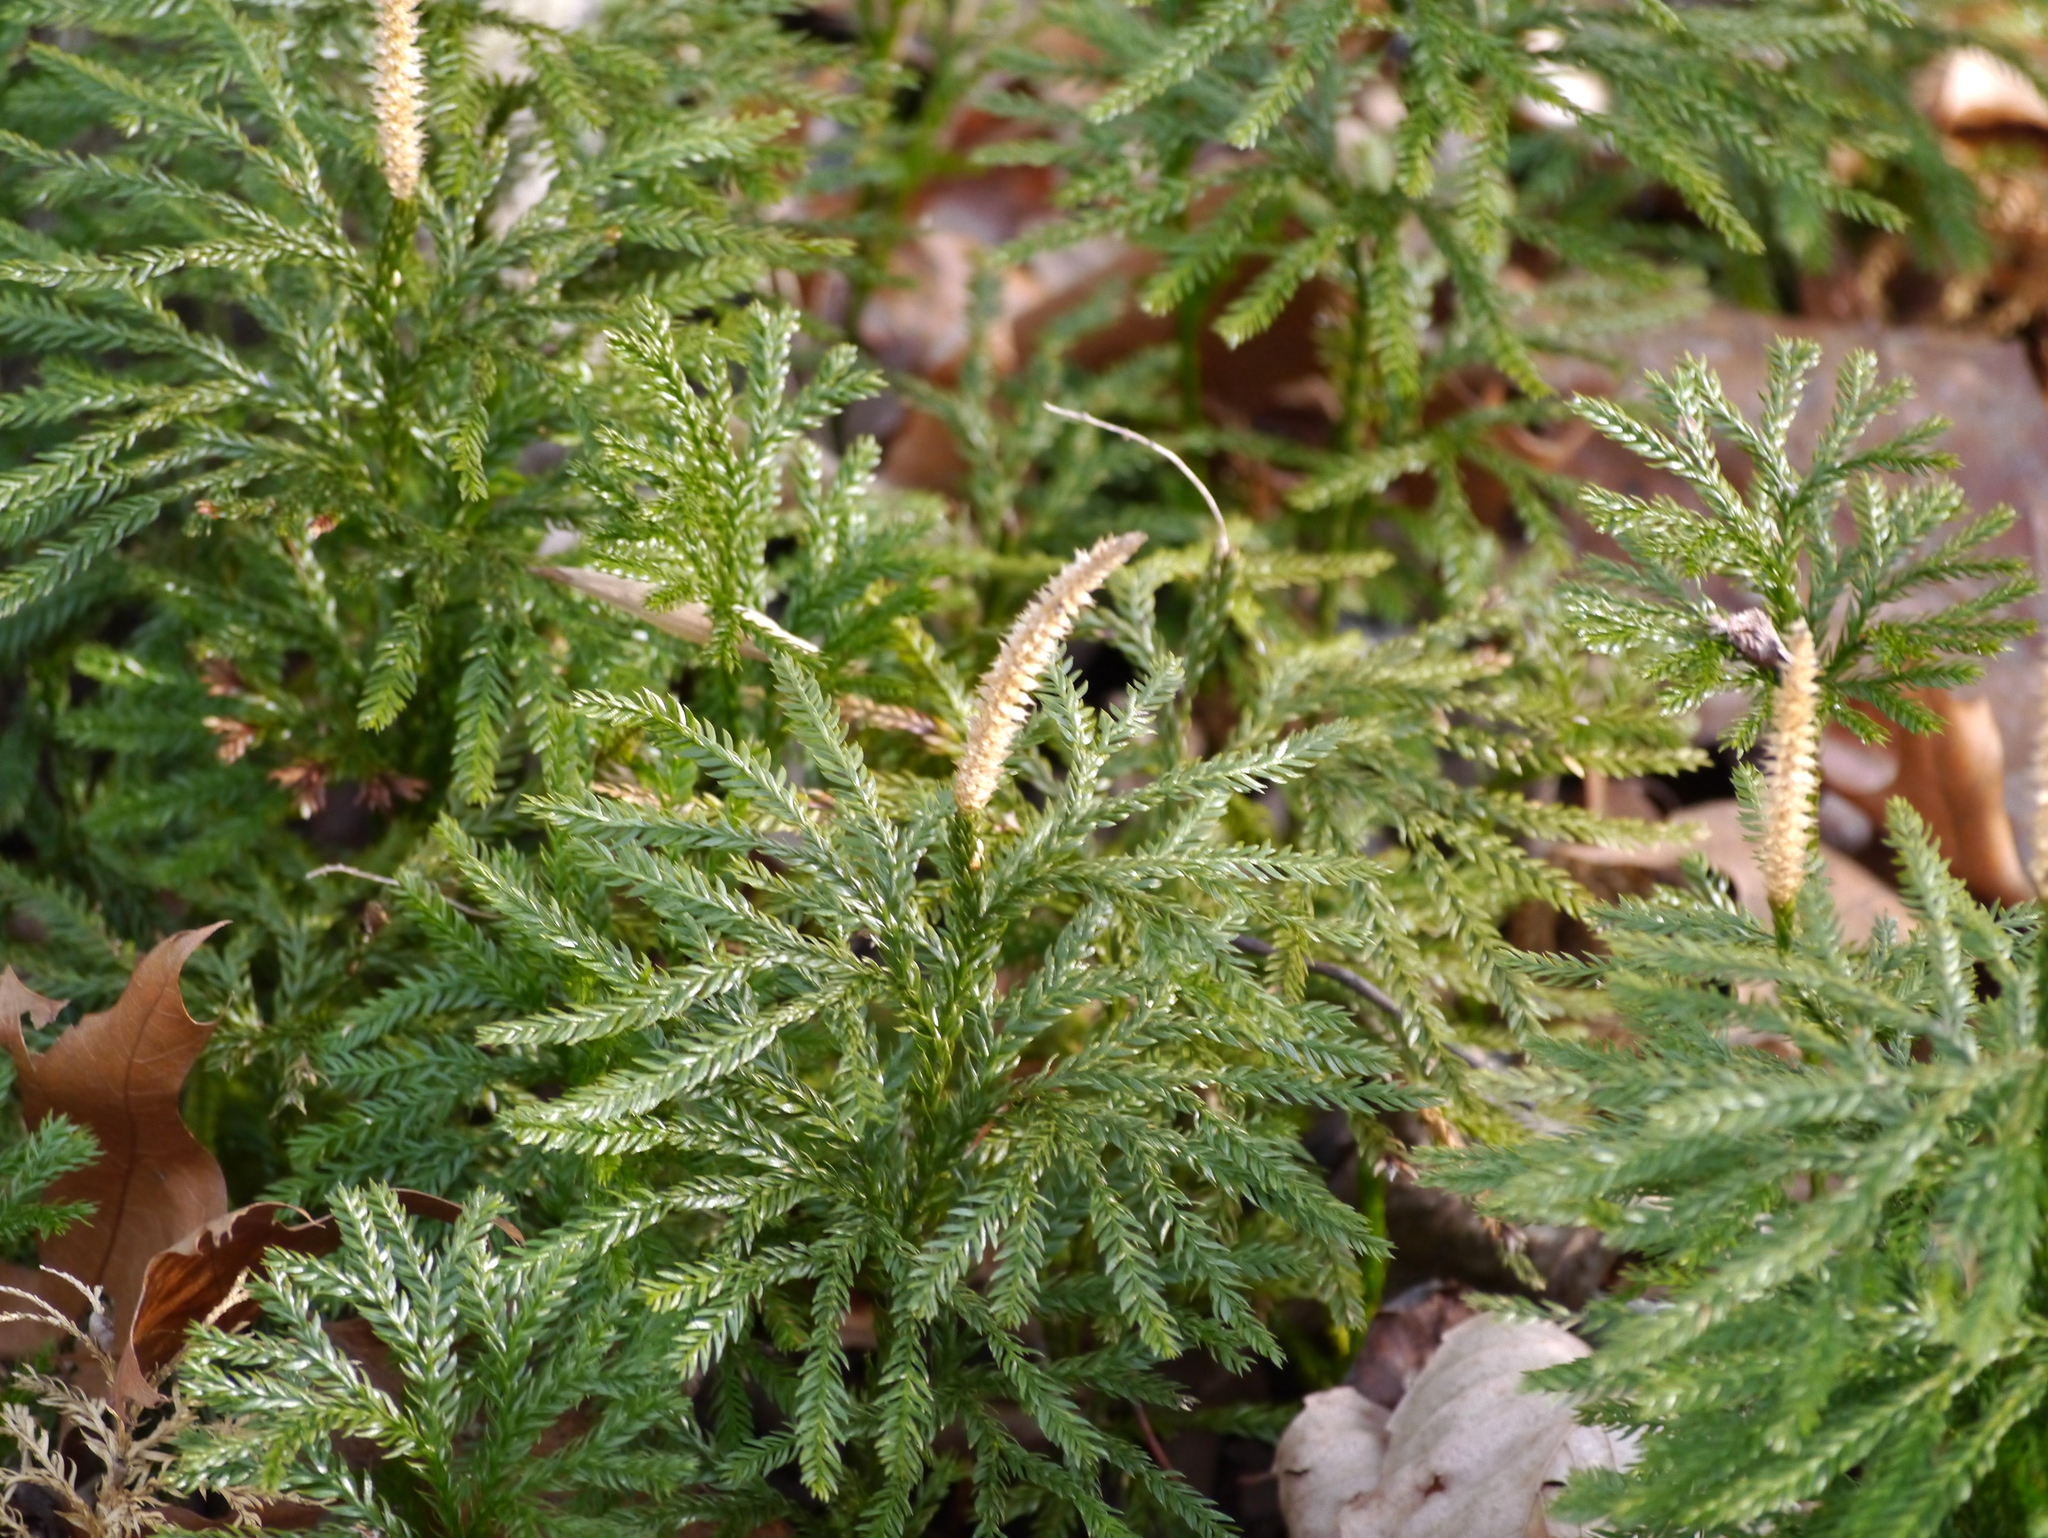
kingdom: Plantae
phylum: Tracheophyta
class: Lycopodiopsida
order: Lycopodiales
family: Lycopodiaceae
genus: Dendrolycopodium
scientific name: Dendrolycopodium obscurum
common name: Common ground-pine
